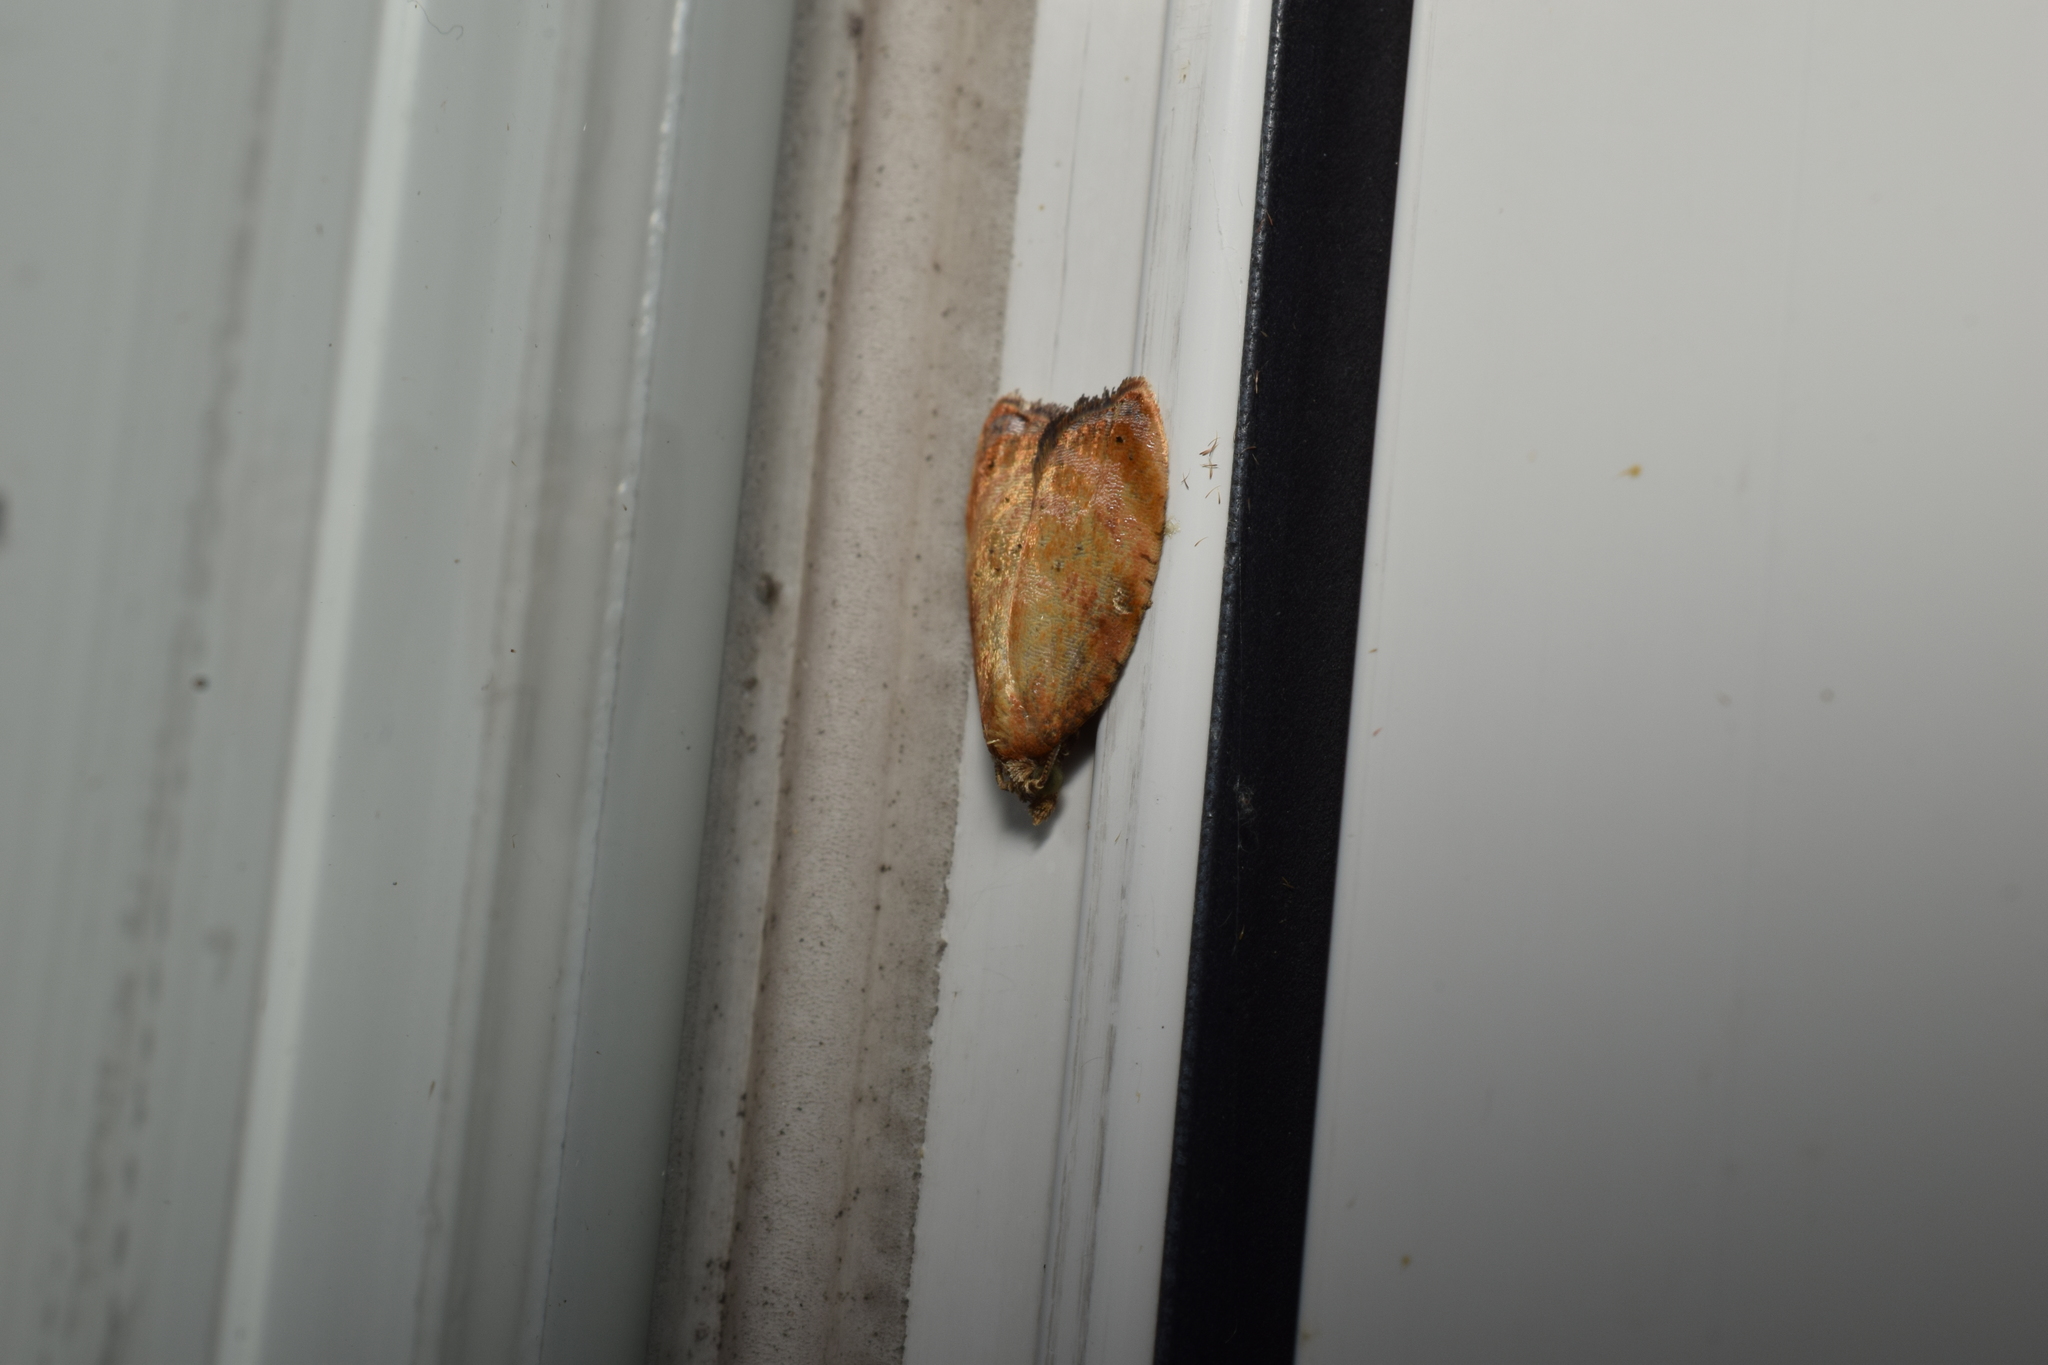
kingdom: Animalia
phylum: Arthropoda
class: Insecta
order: Lepidoptera
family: Tortricidae
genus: Acleris
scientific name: Acleris enitescens
